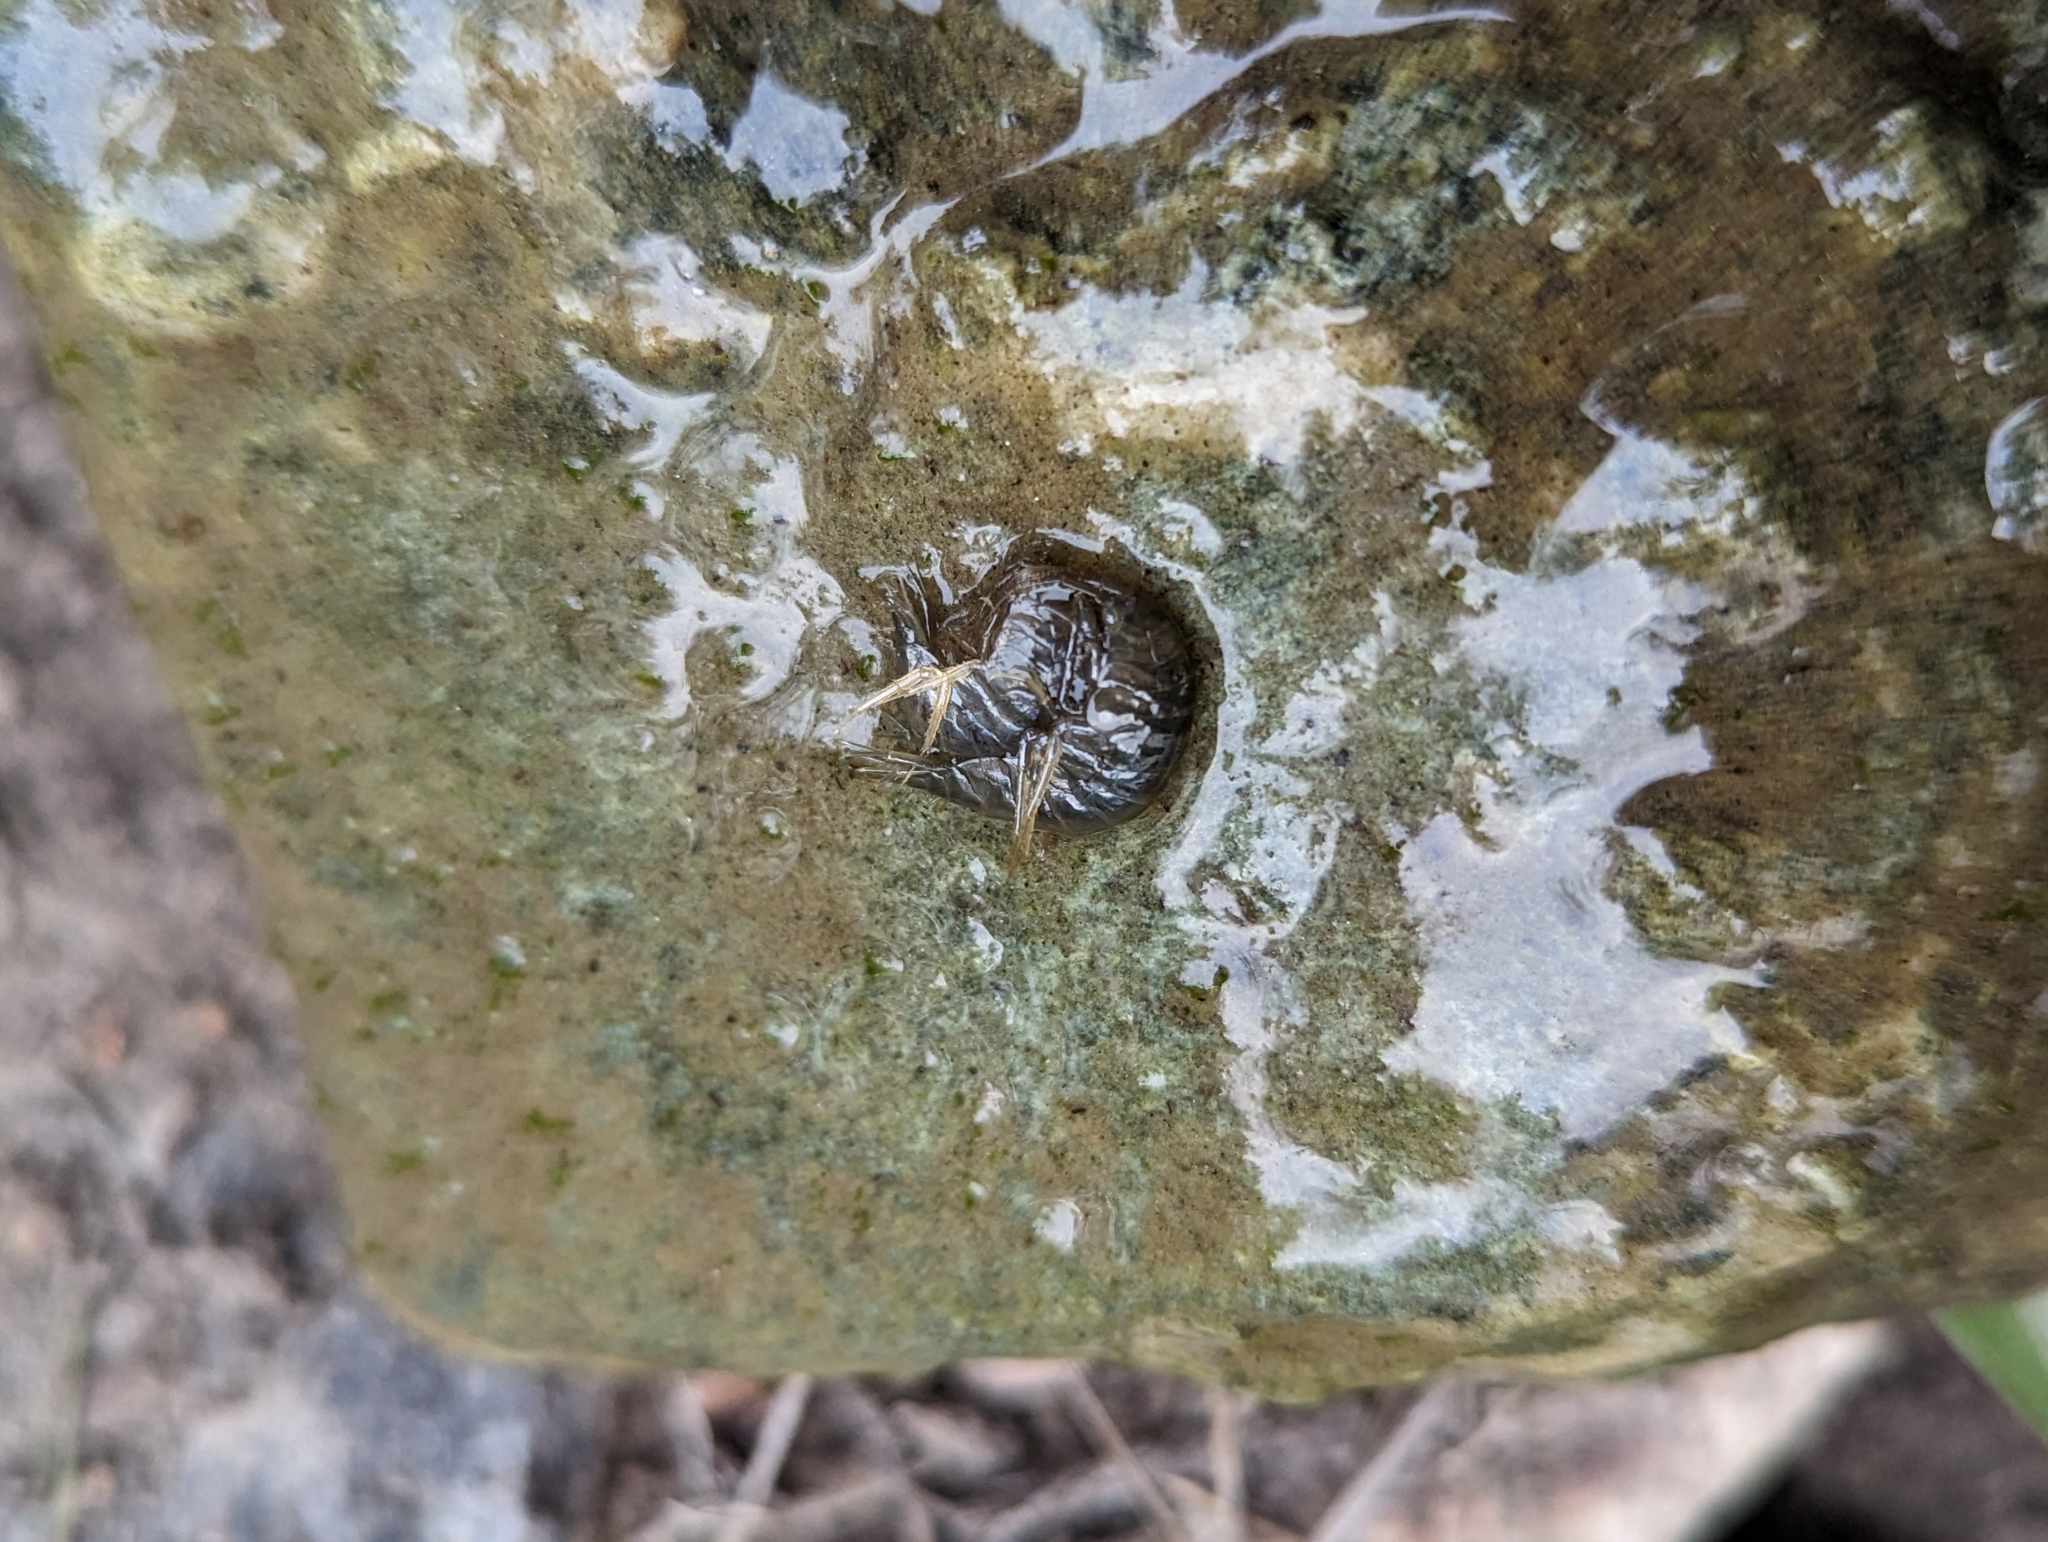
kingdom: Animalia
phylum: Arthropoda
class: Malacostraca
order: Amphipoda
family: Gammaridae
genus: Gammarus
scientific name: Gammarus lacustris
